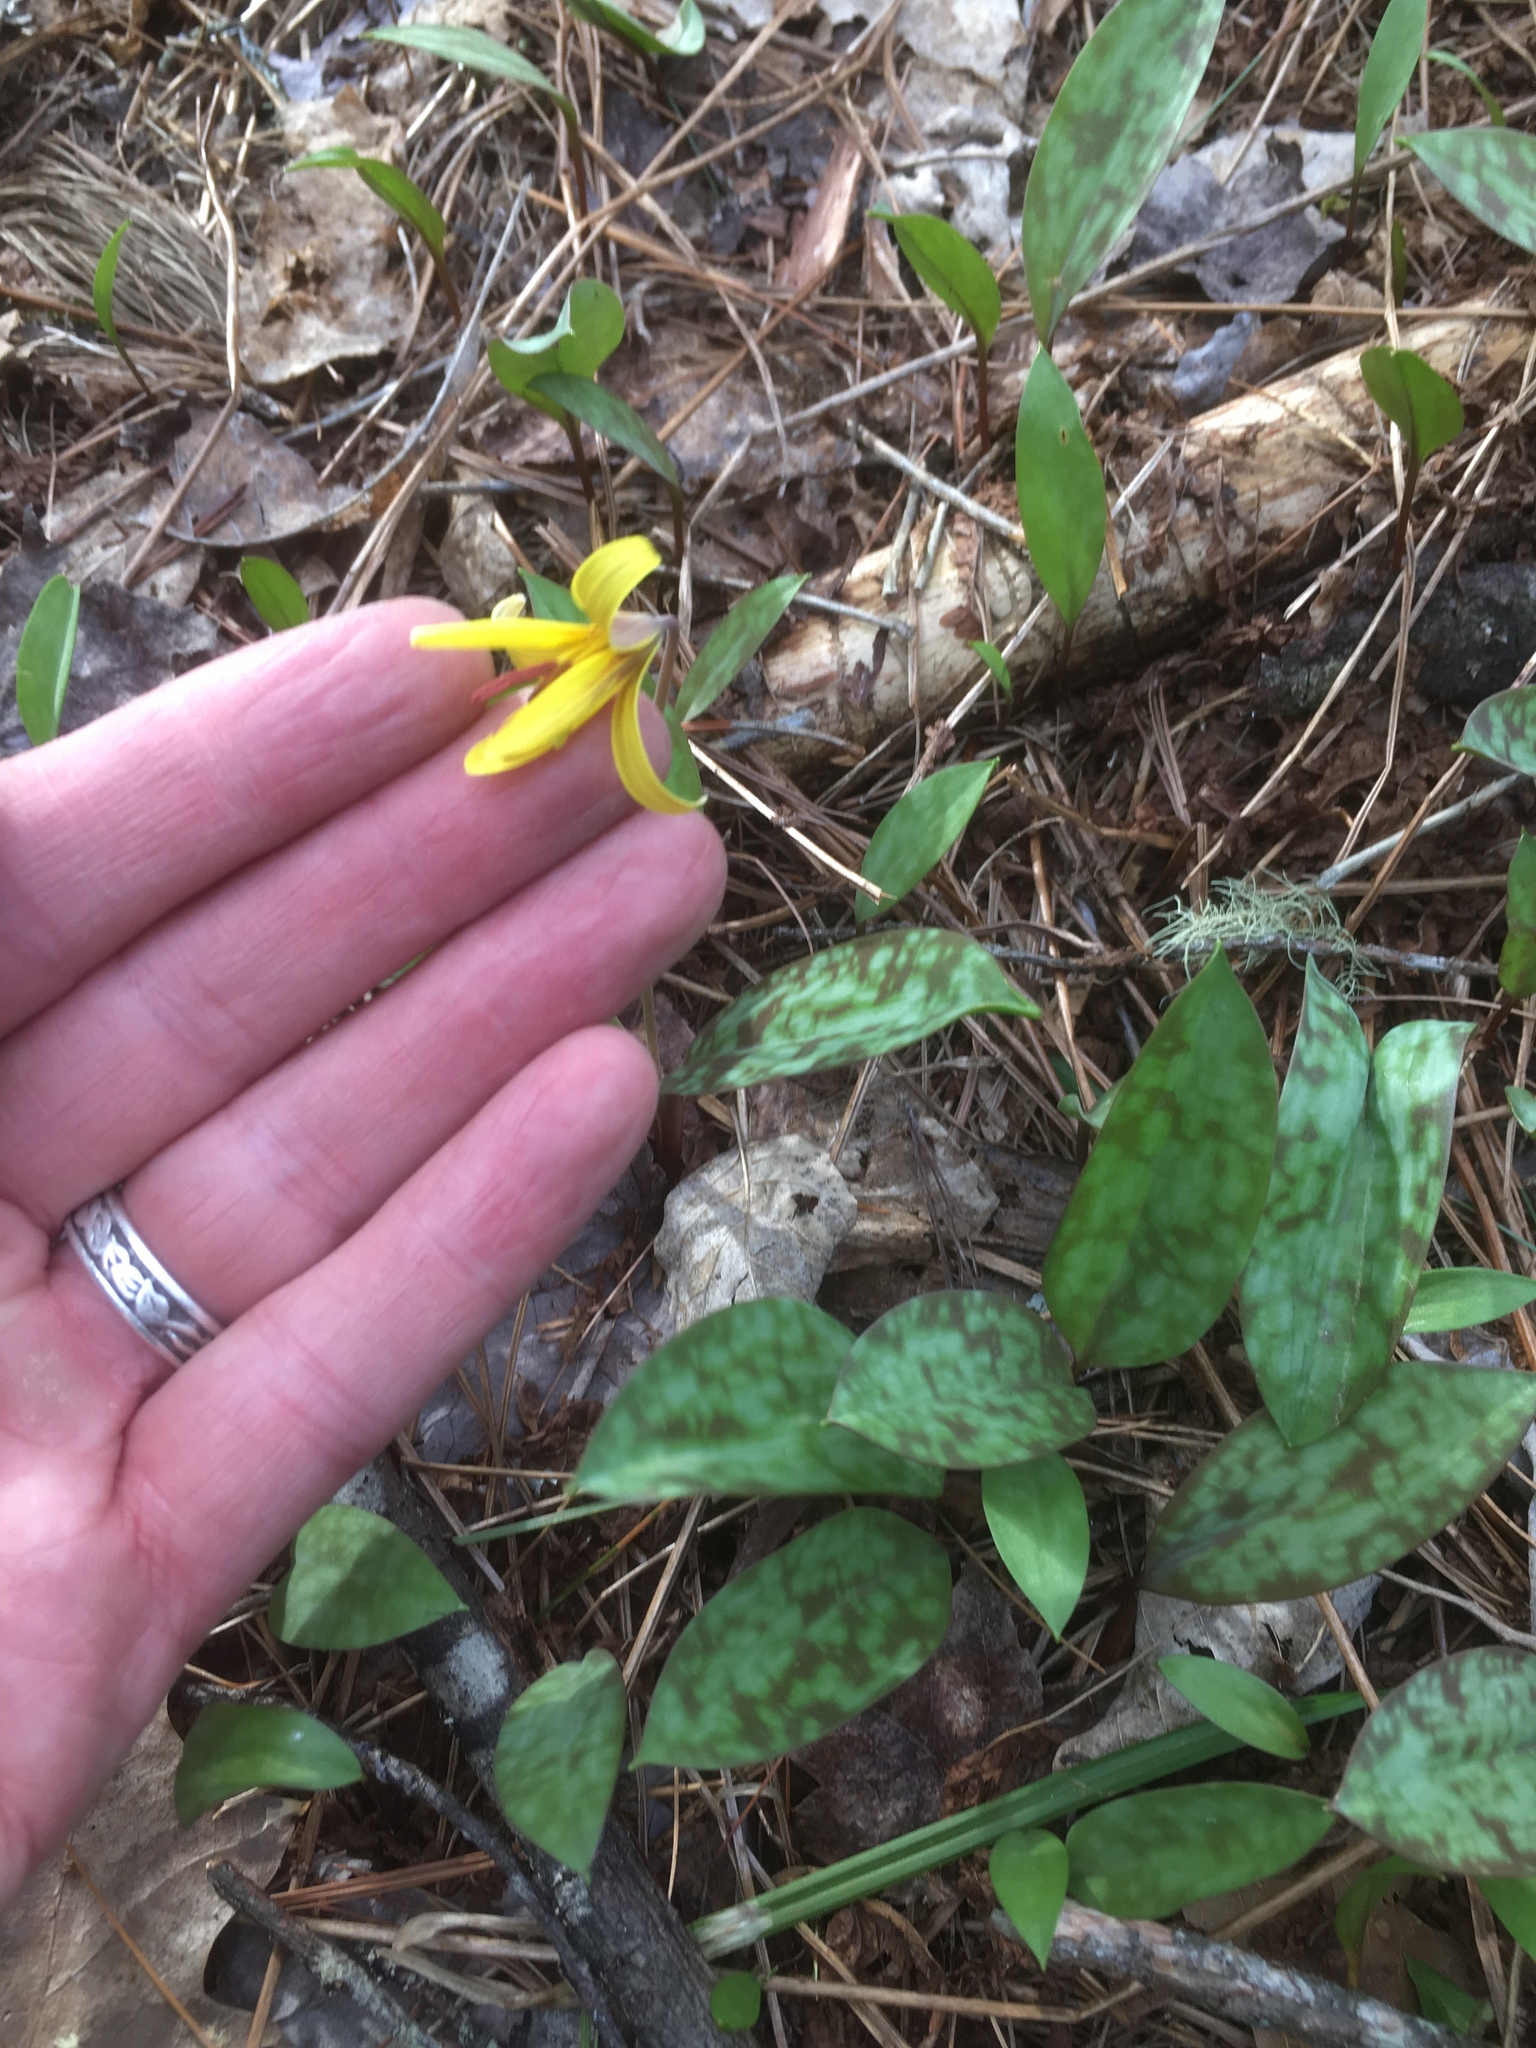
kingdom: Plantae
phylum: Tracheophyta
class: Liliopsida
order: Liliales
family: Liliaceae
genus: Erythronium
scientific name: Erythronium americanum
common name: Yellow adder's-tongue
